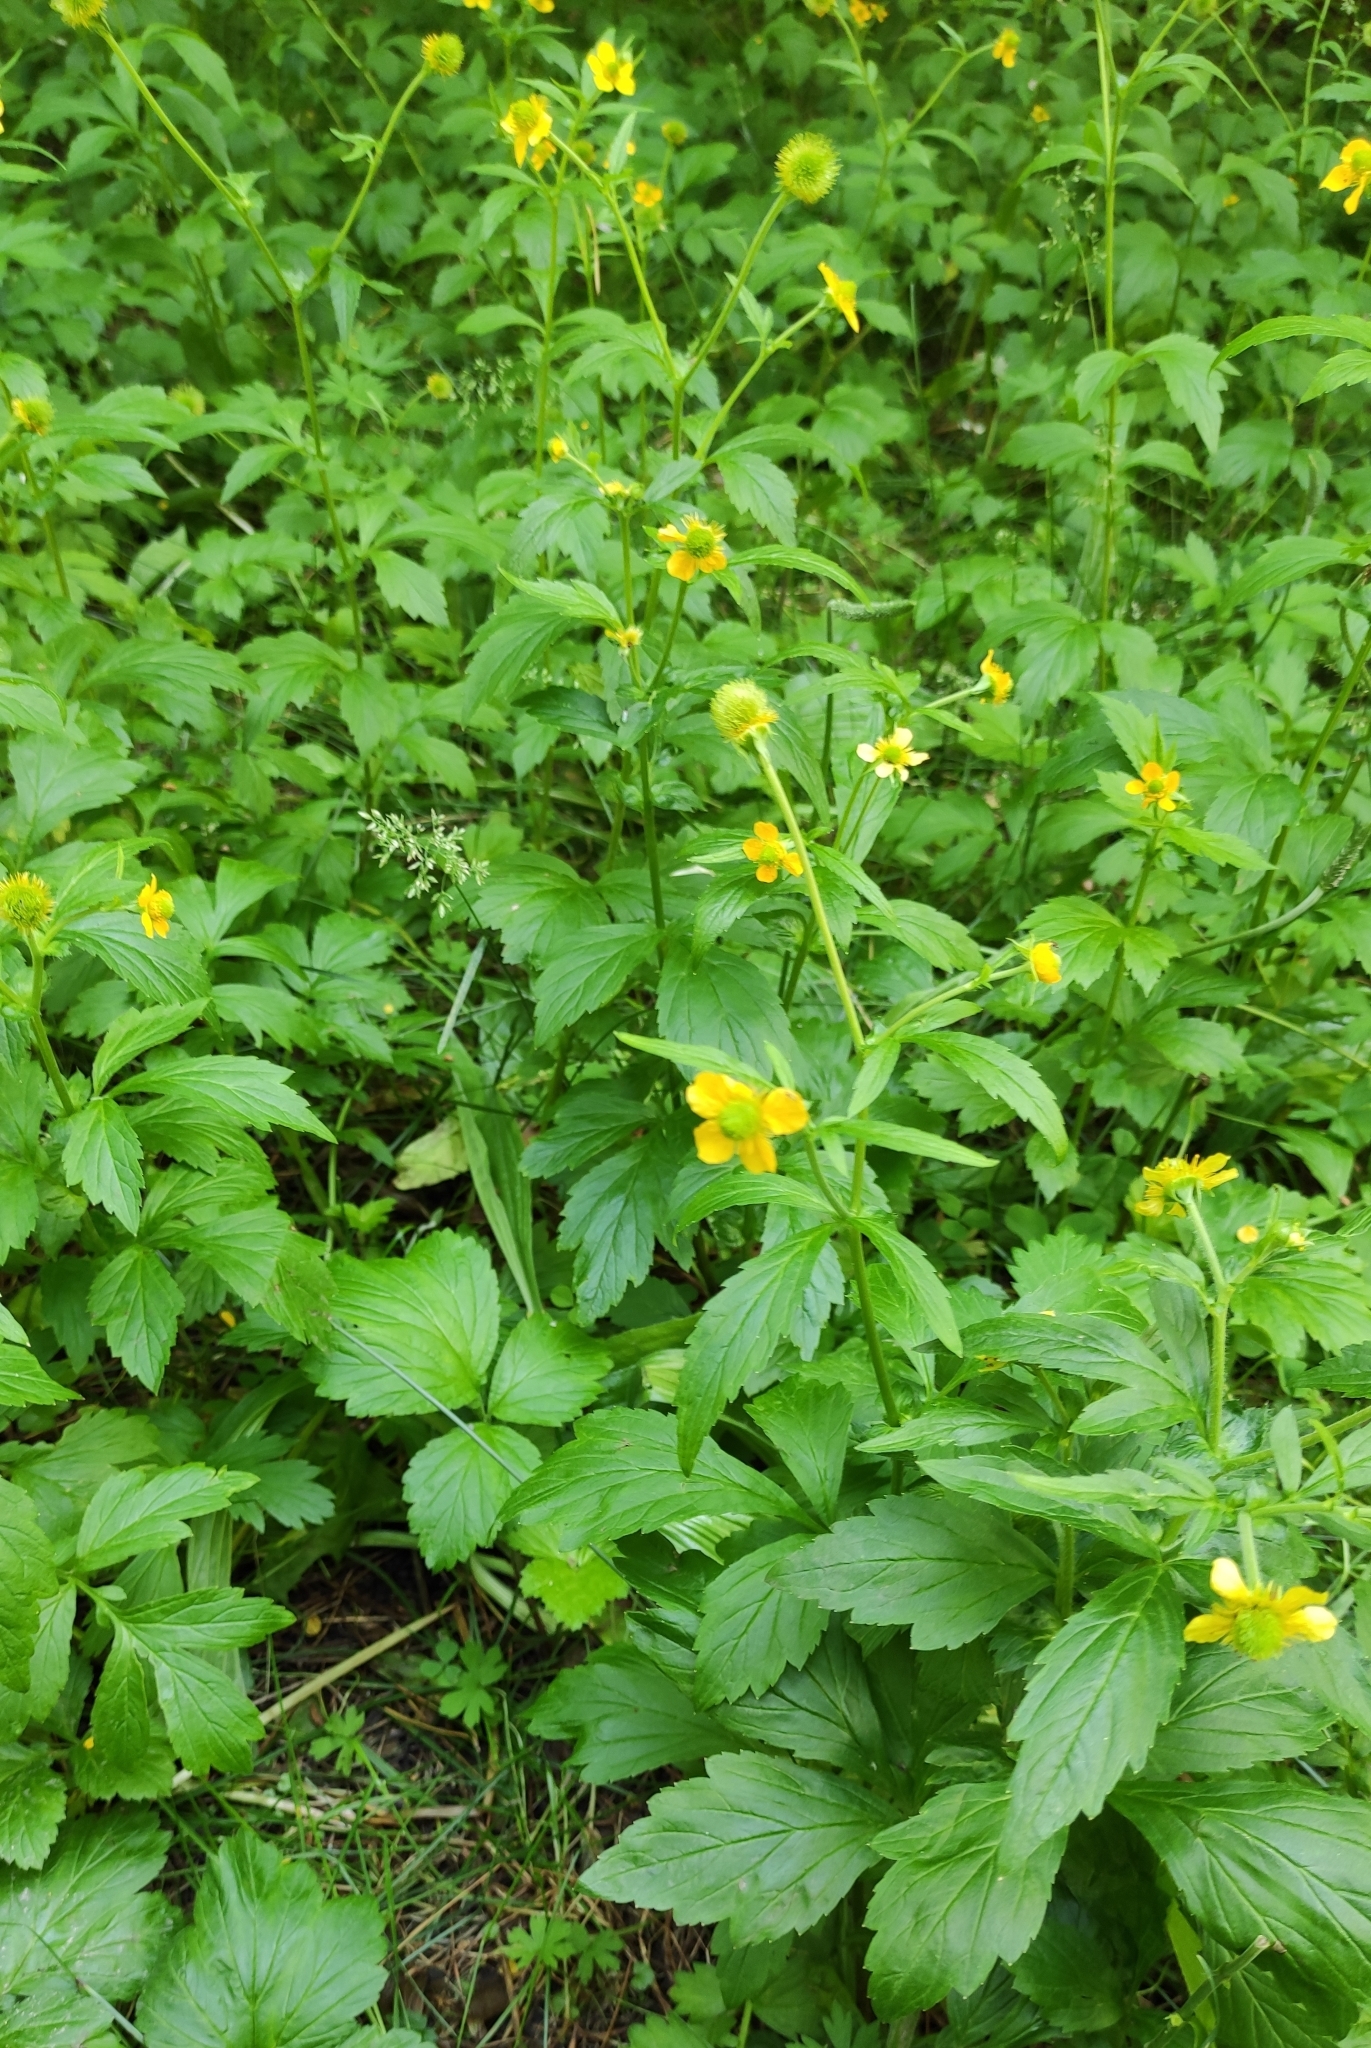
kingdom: Plantae
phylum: Tracheophyta
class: Magnoliopsida
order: Rosales
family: Rosaceae
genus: Geum
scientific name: Geum aleppicum
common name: Yellow avens
